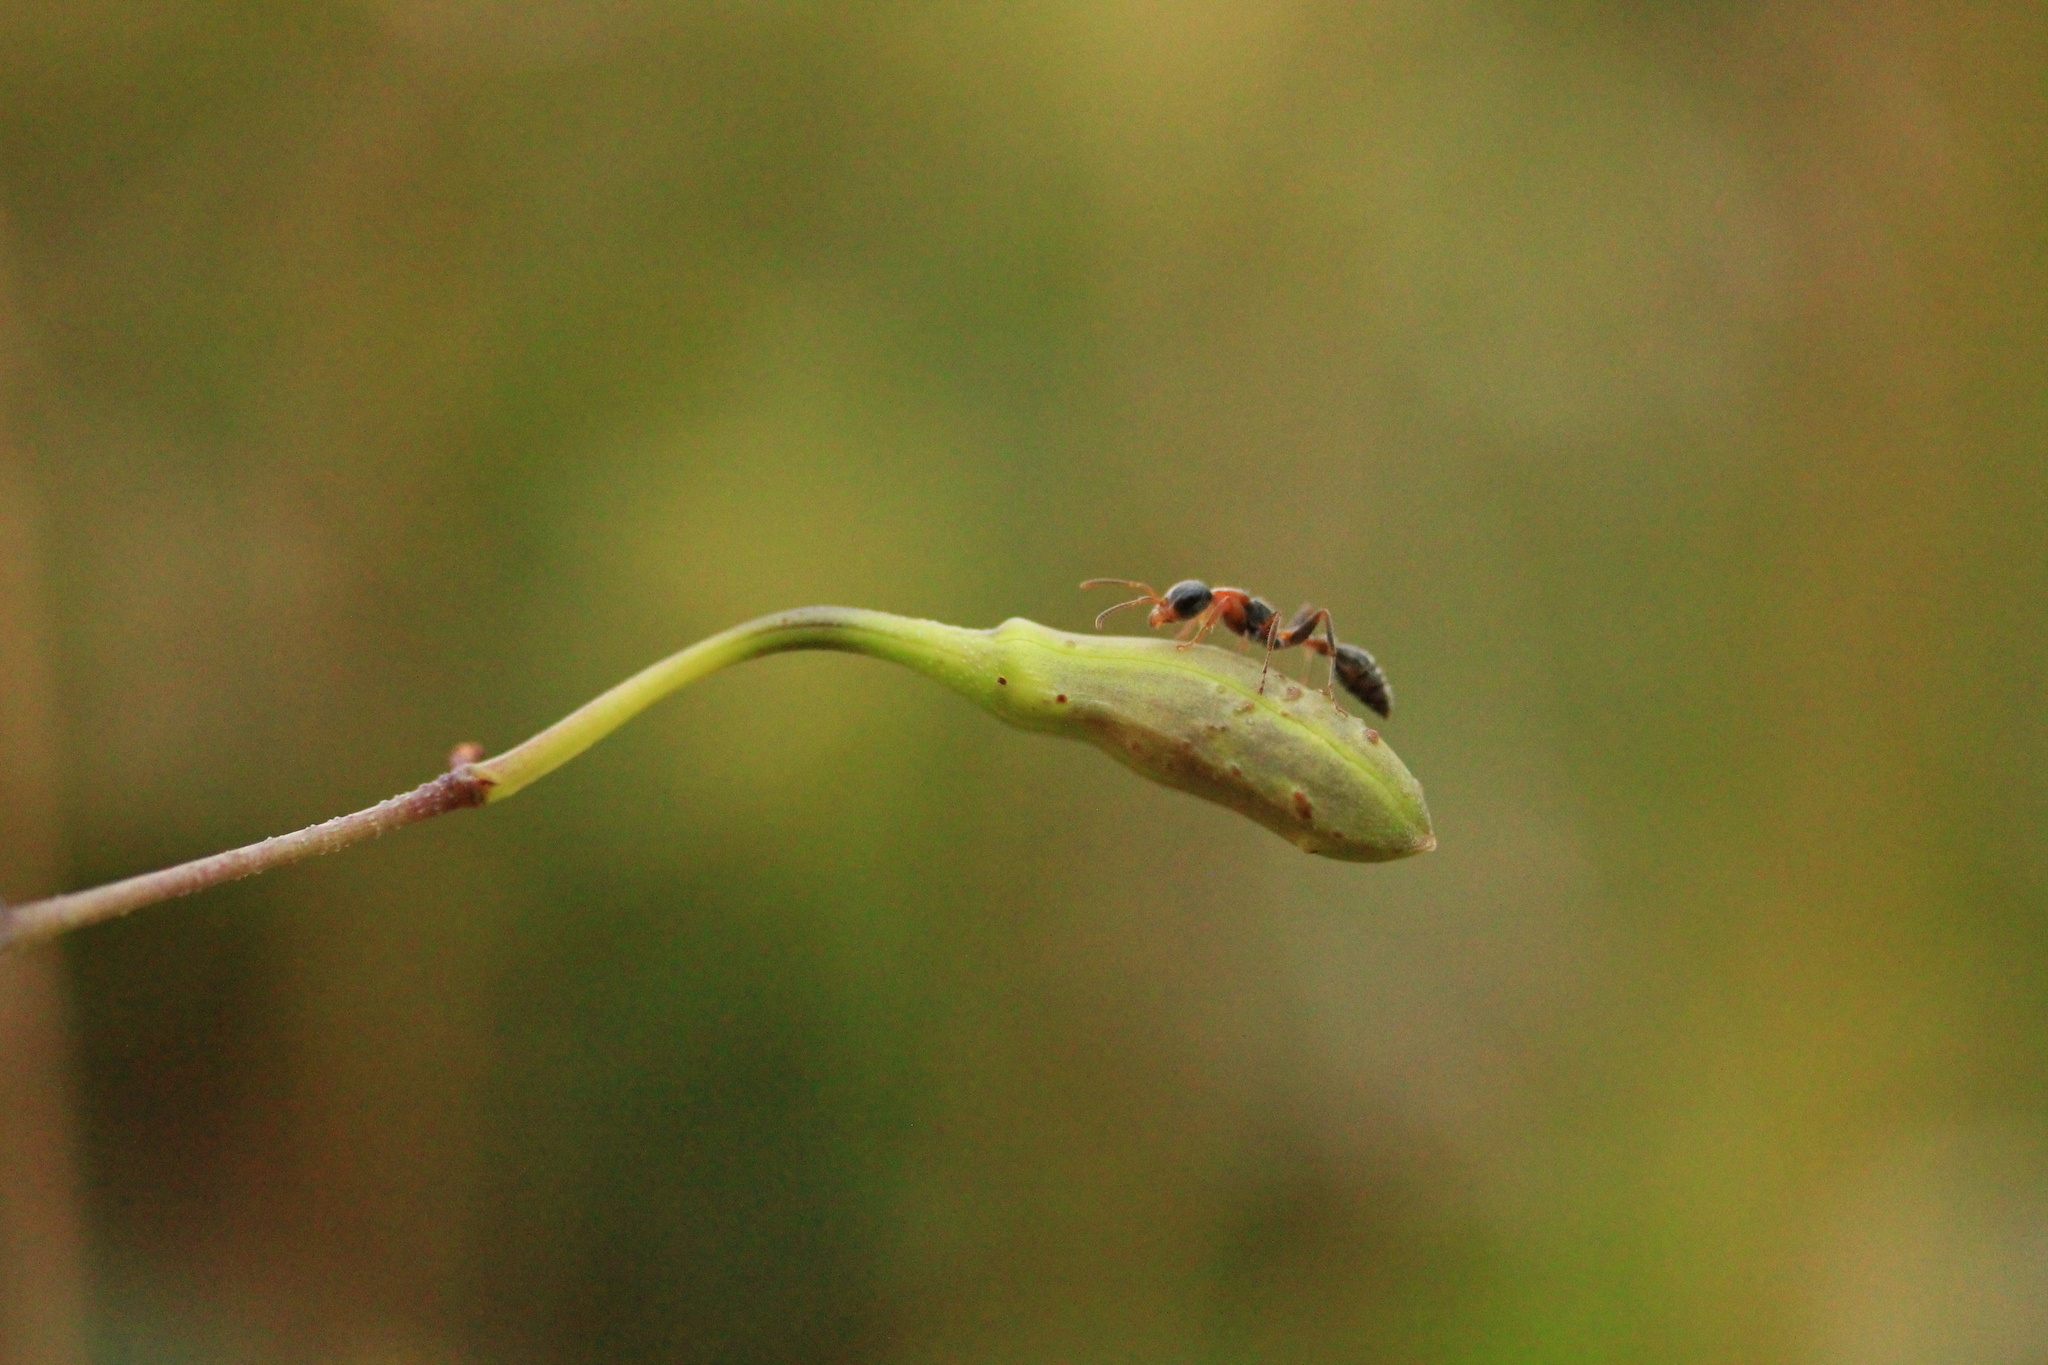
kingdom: Animalia
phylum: Arthropoda
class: Insecta
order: Hymenoptera
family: Formicidae
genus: Pseudomyrmex
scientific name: Pseudomyrmex gracilis
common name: Graceful twig ant
